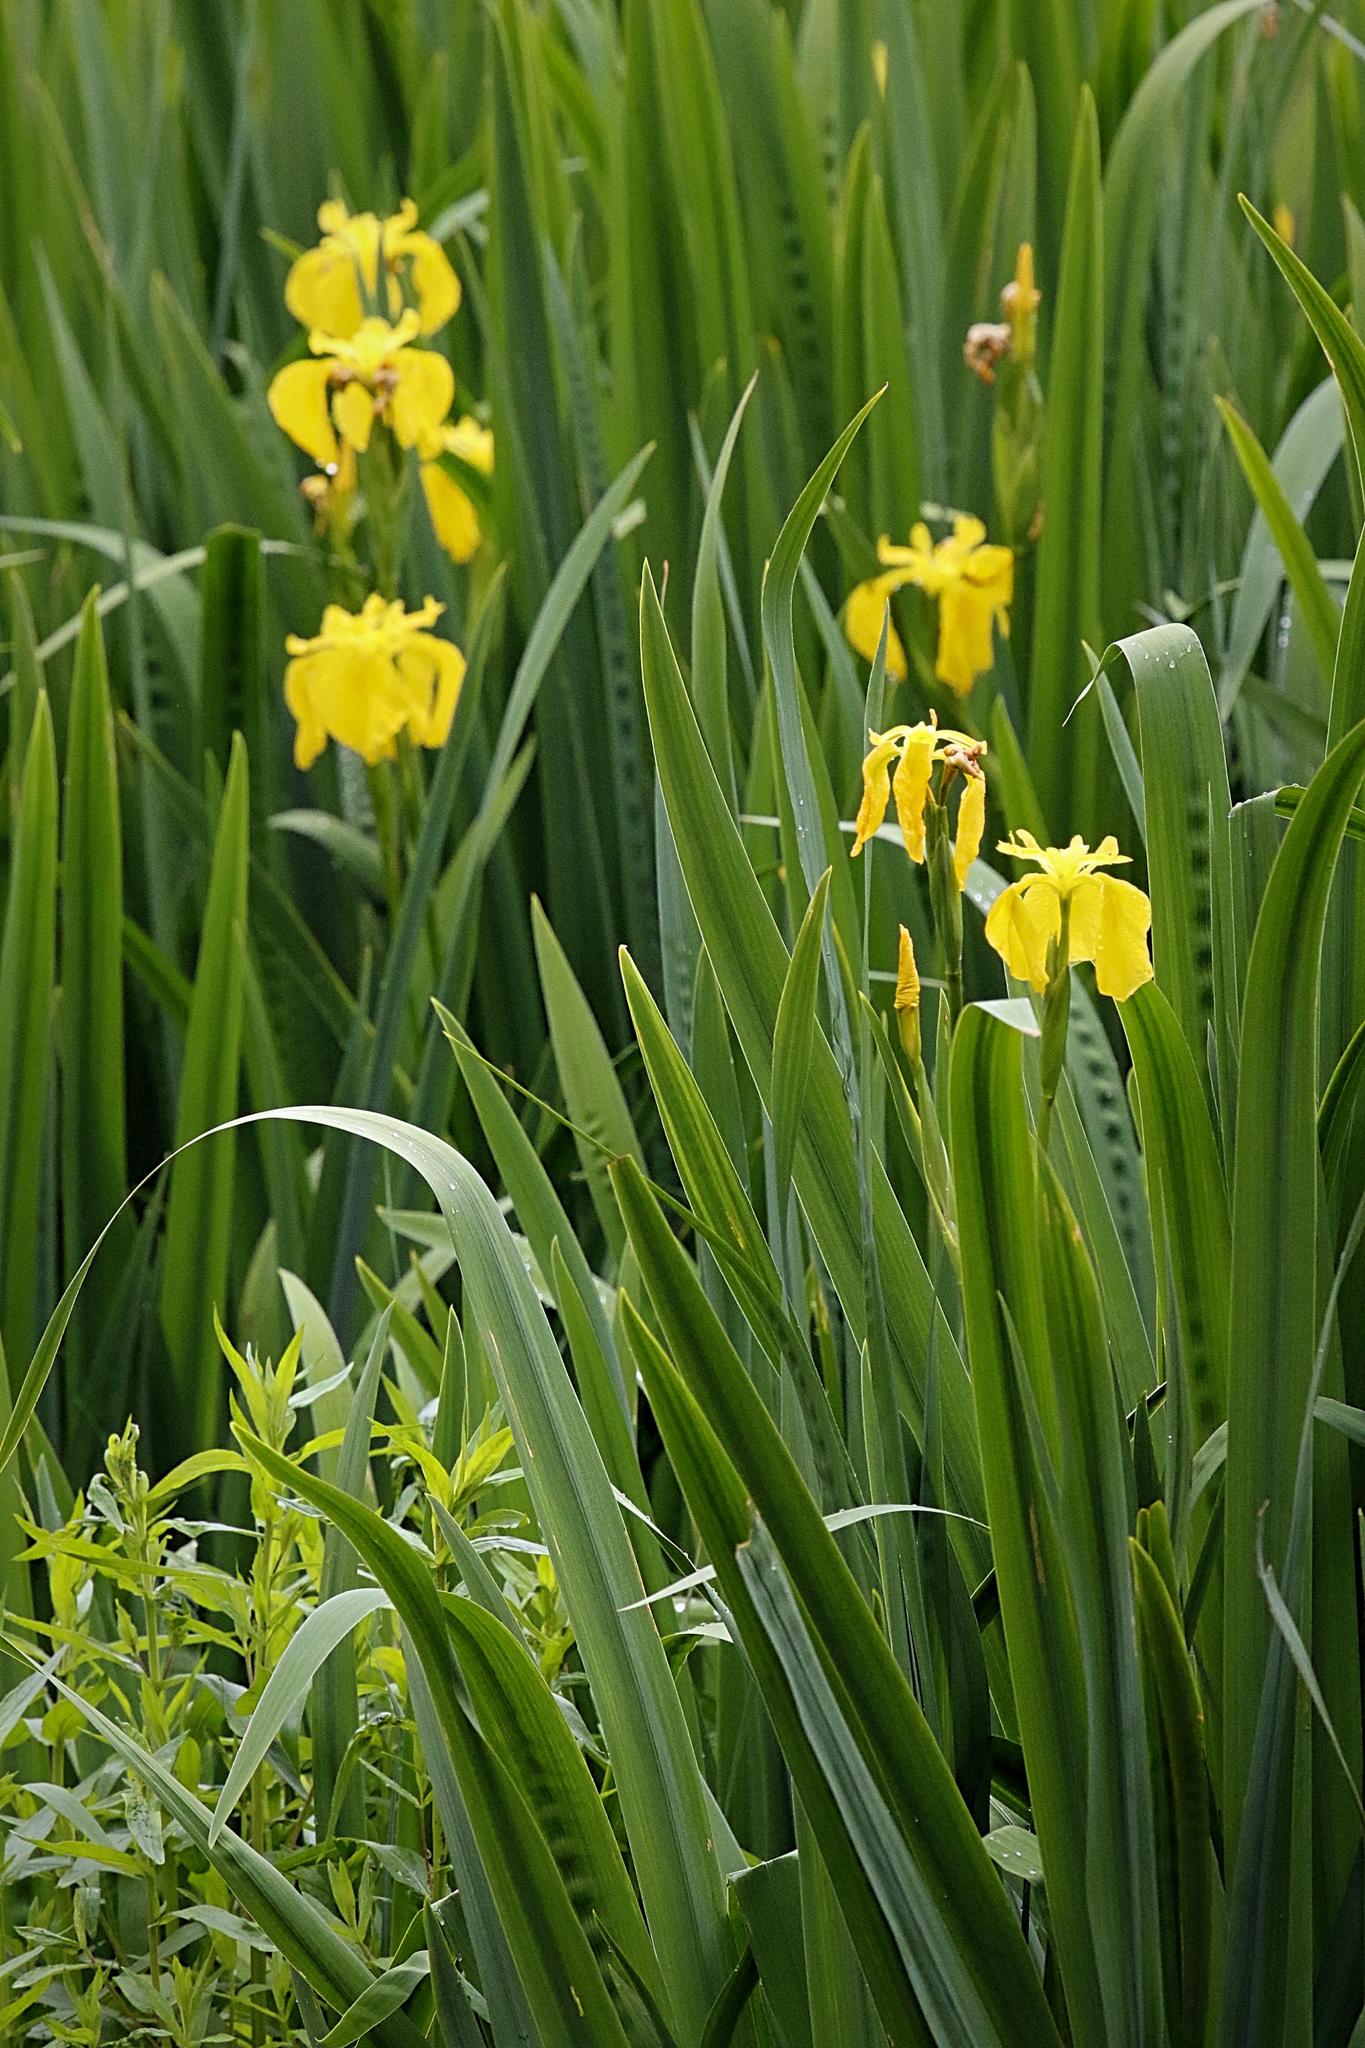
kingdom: Plantae
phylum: Tracheophyta
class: Liliopsida
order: Asparagales
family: Iridaceae
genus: Iris
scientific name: Iris pseudacorus
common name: Yellow flag
